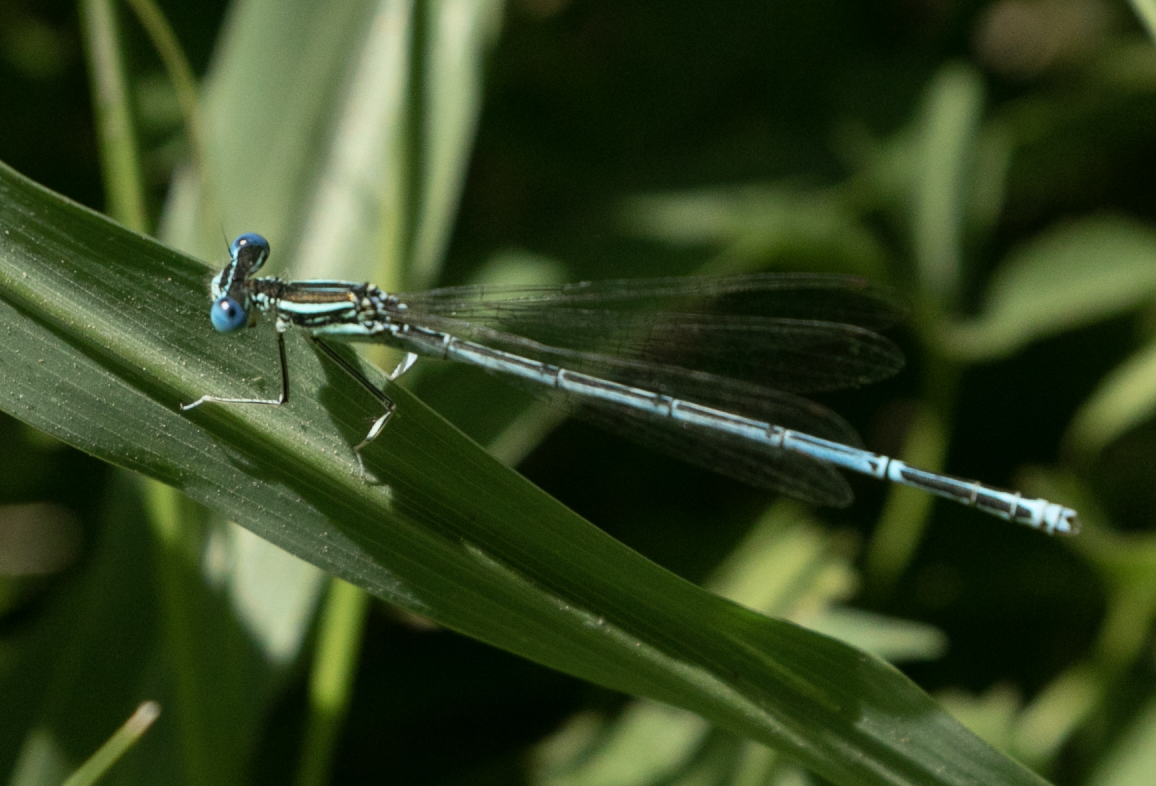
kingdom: Animalia
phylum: Arthropoda
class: Insecta
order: Odonata
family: Platycnemididae
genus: Platycnemis
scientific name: Platycnemis pennipes
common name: White-legged damselfly
